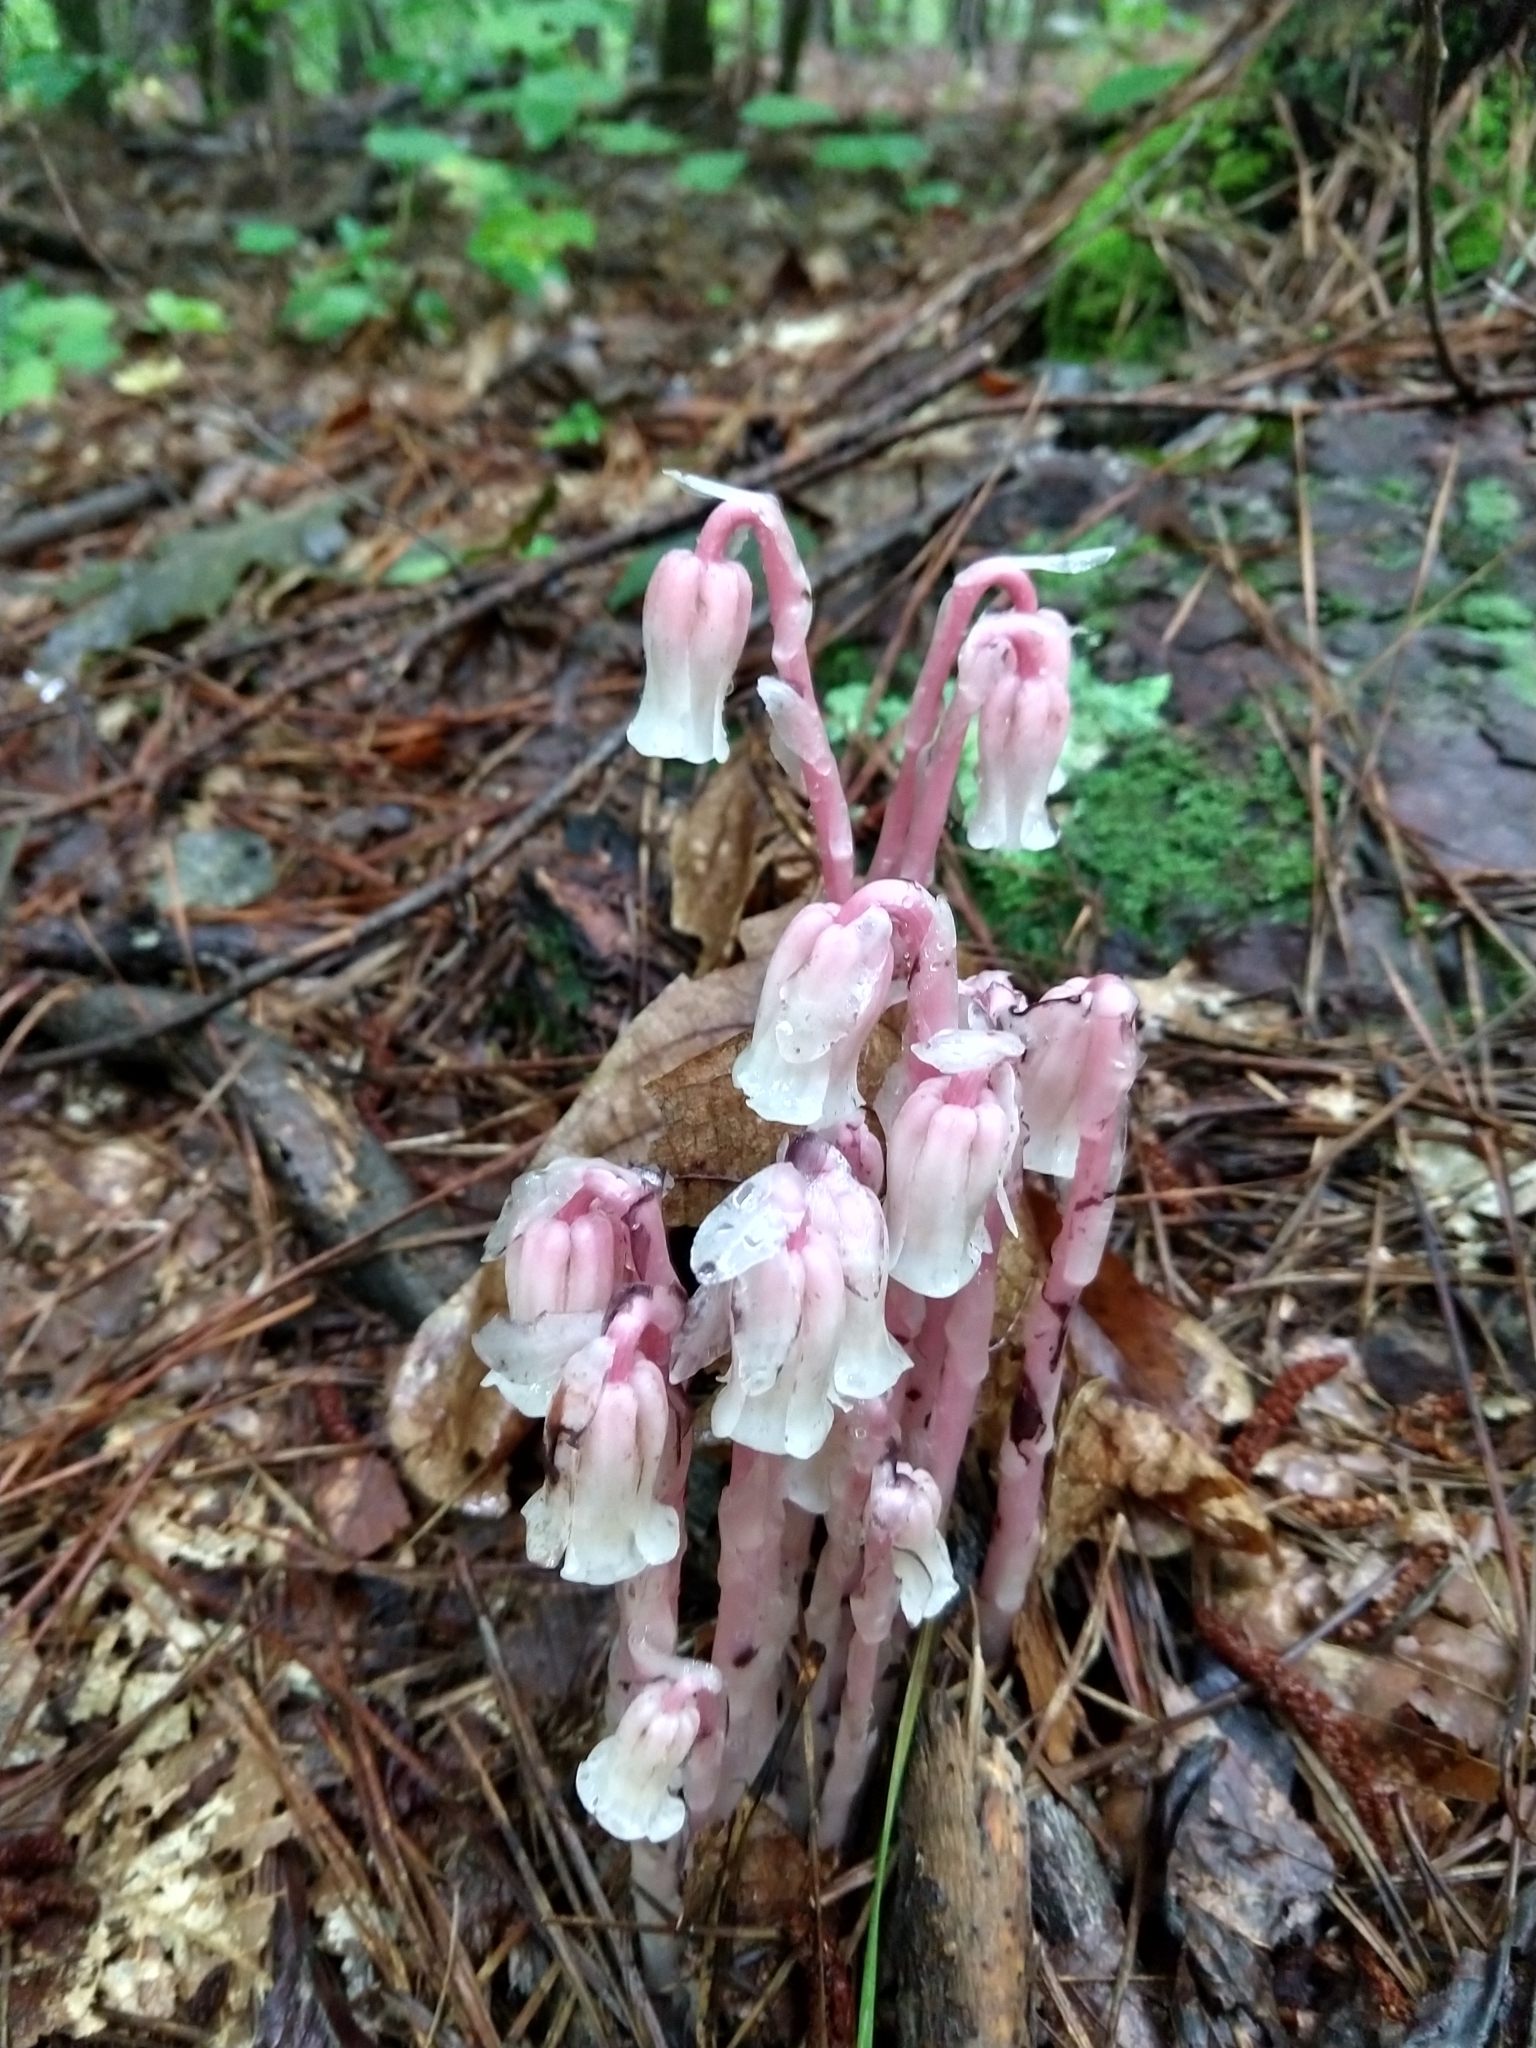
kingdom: Plantae
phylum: Tracheophyta
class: Magnoliopsida
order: Ericales
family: Ericaceae
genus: Monotropa
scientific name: Monotropa uniflora
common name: Convulsion root
